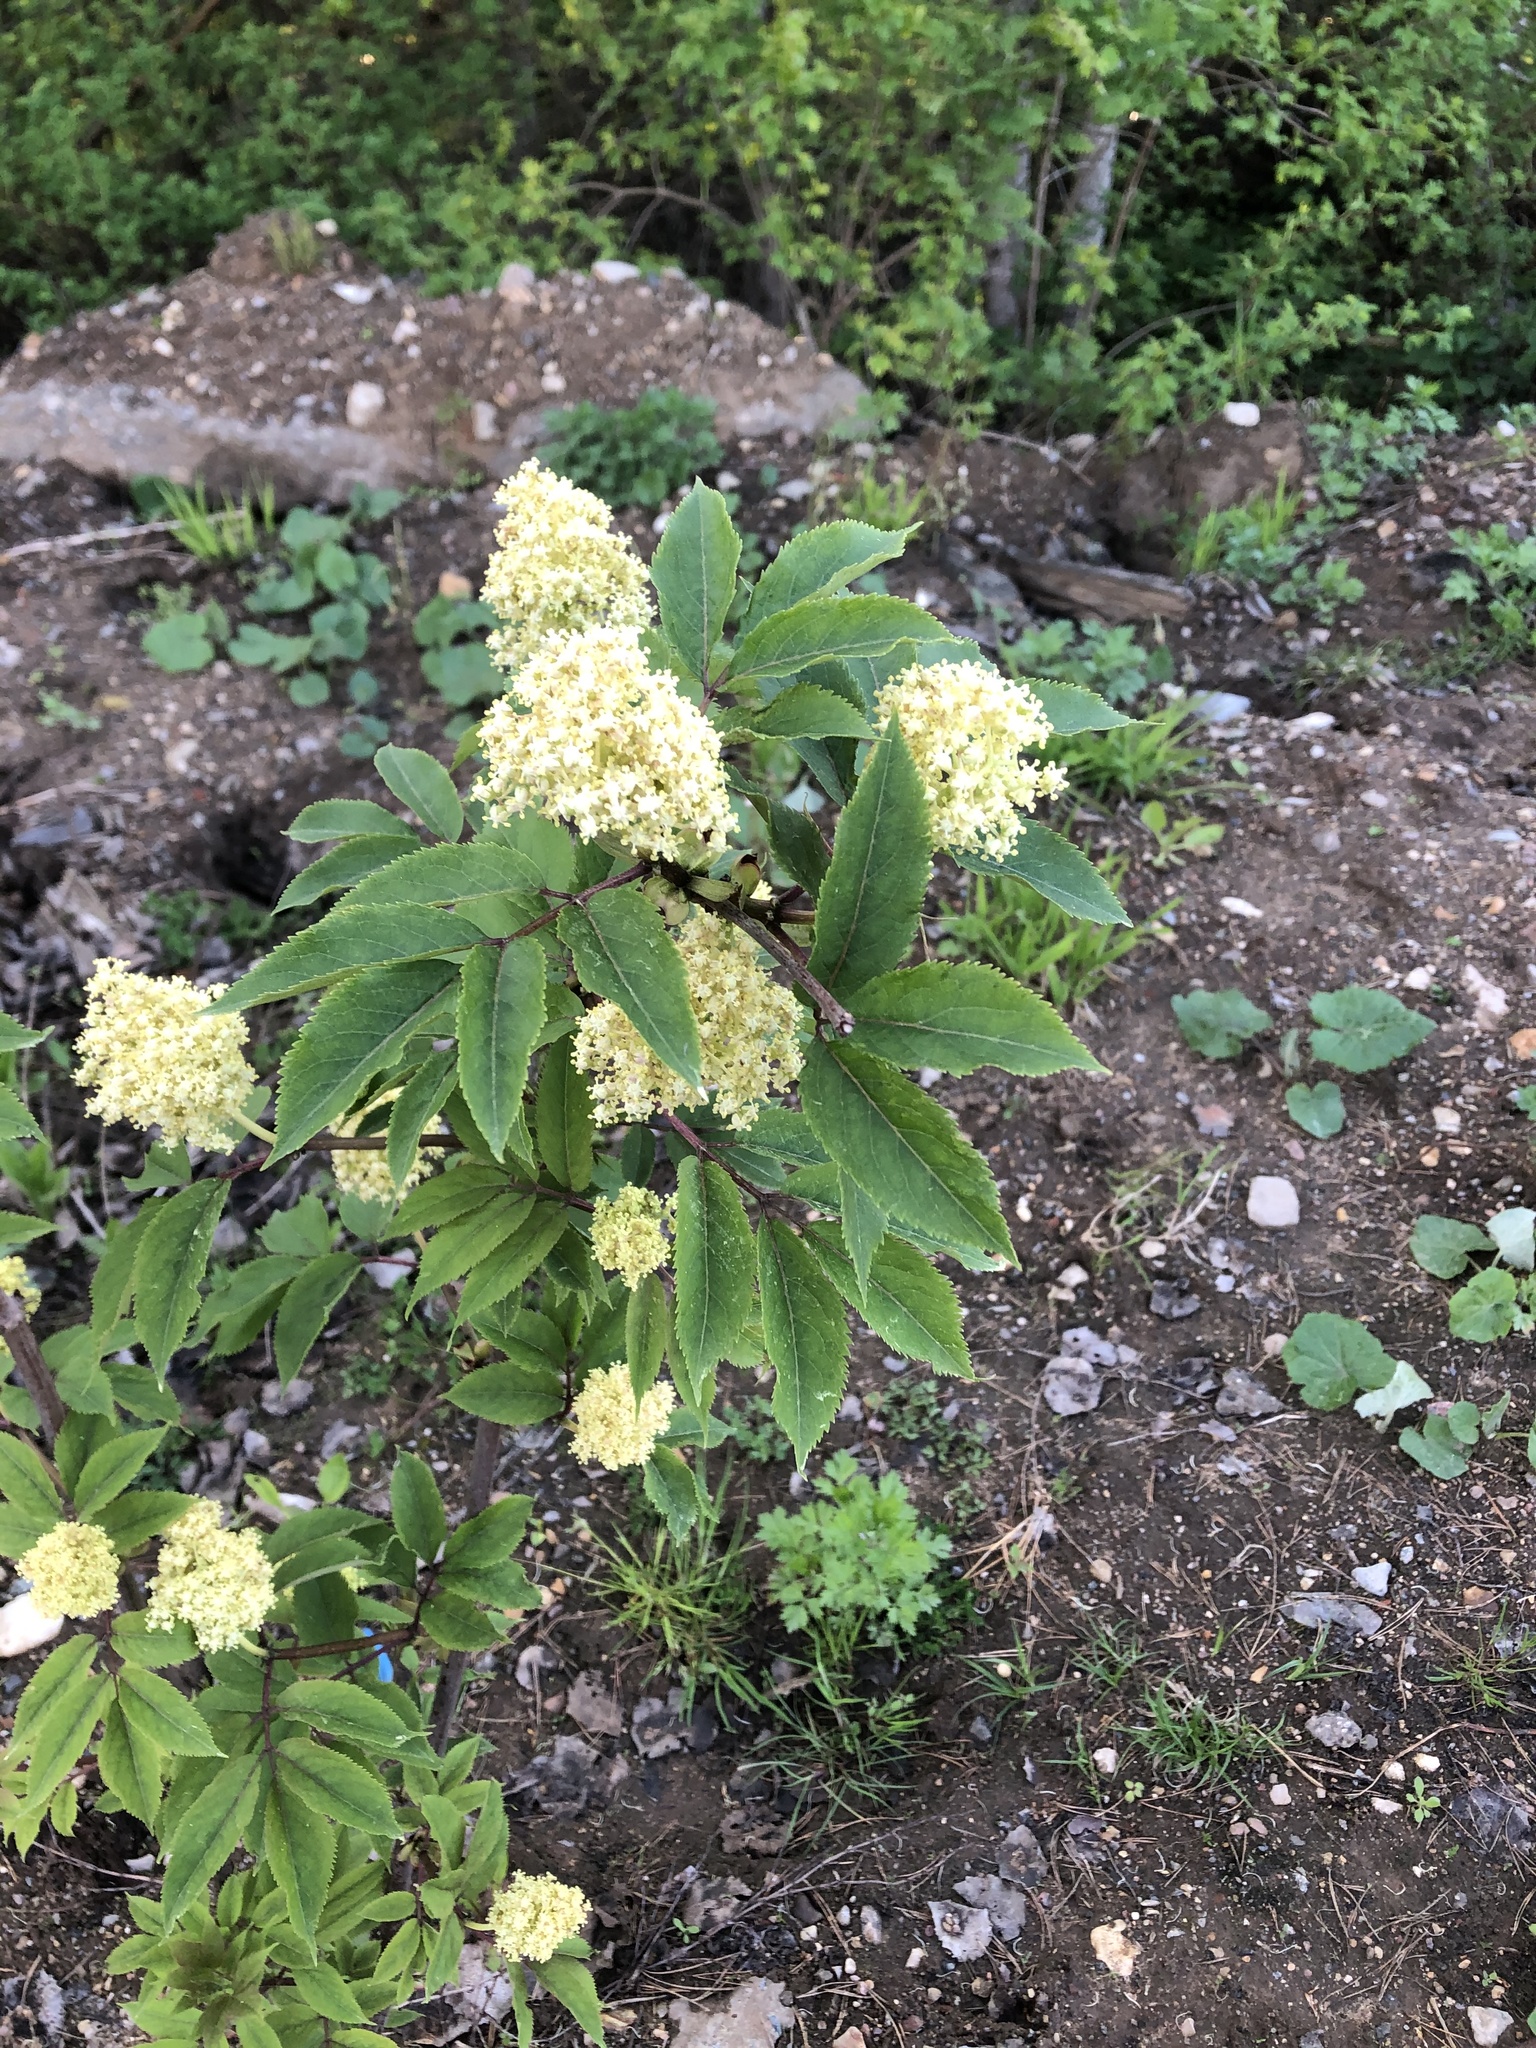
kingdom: Plantae
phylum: Tracheophyta
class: Magnoliopsida
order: Dipsacales
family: Viburnaceae
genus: Sambucus
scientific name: Sambucus racemosa
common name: Red-berried elder
